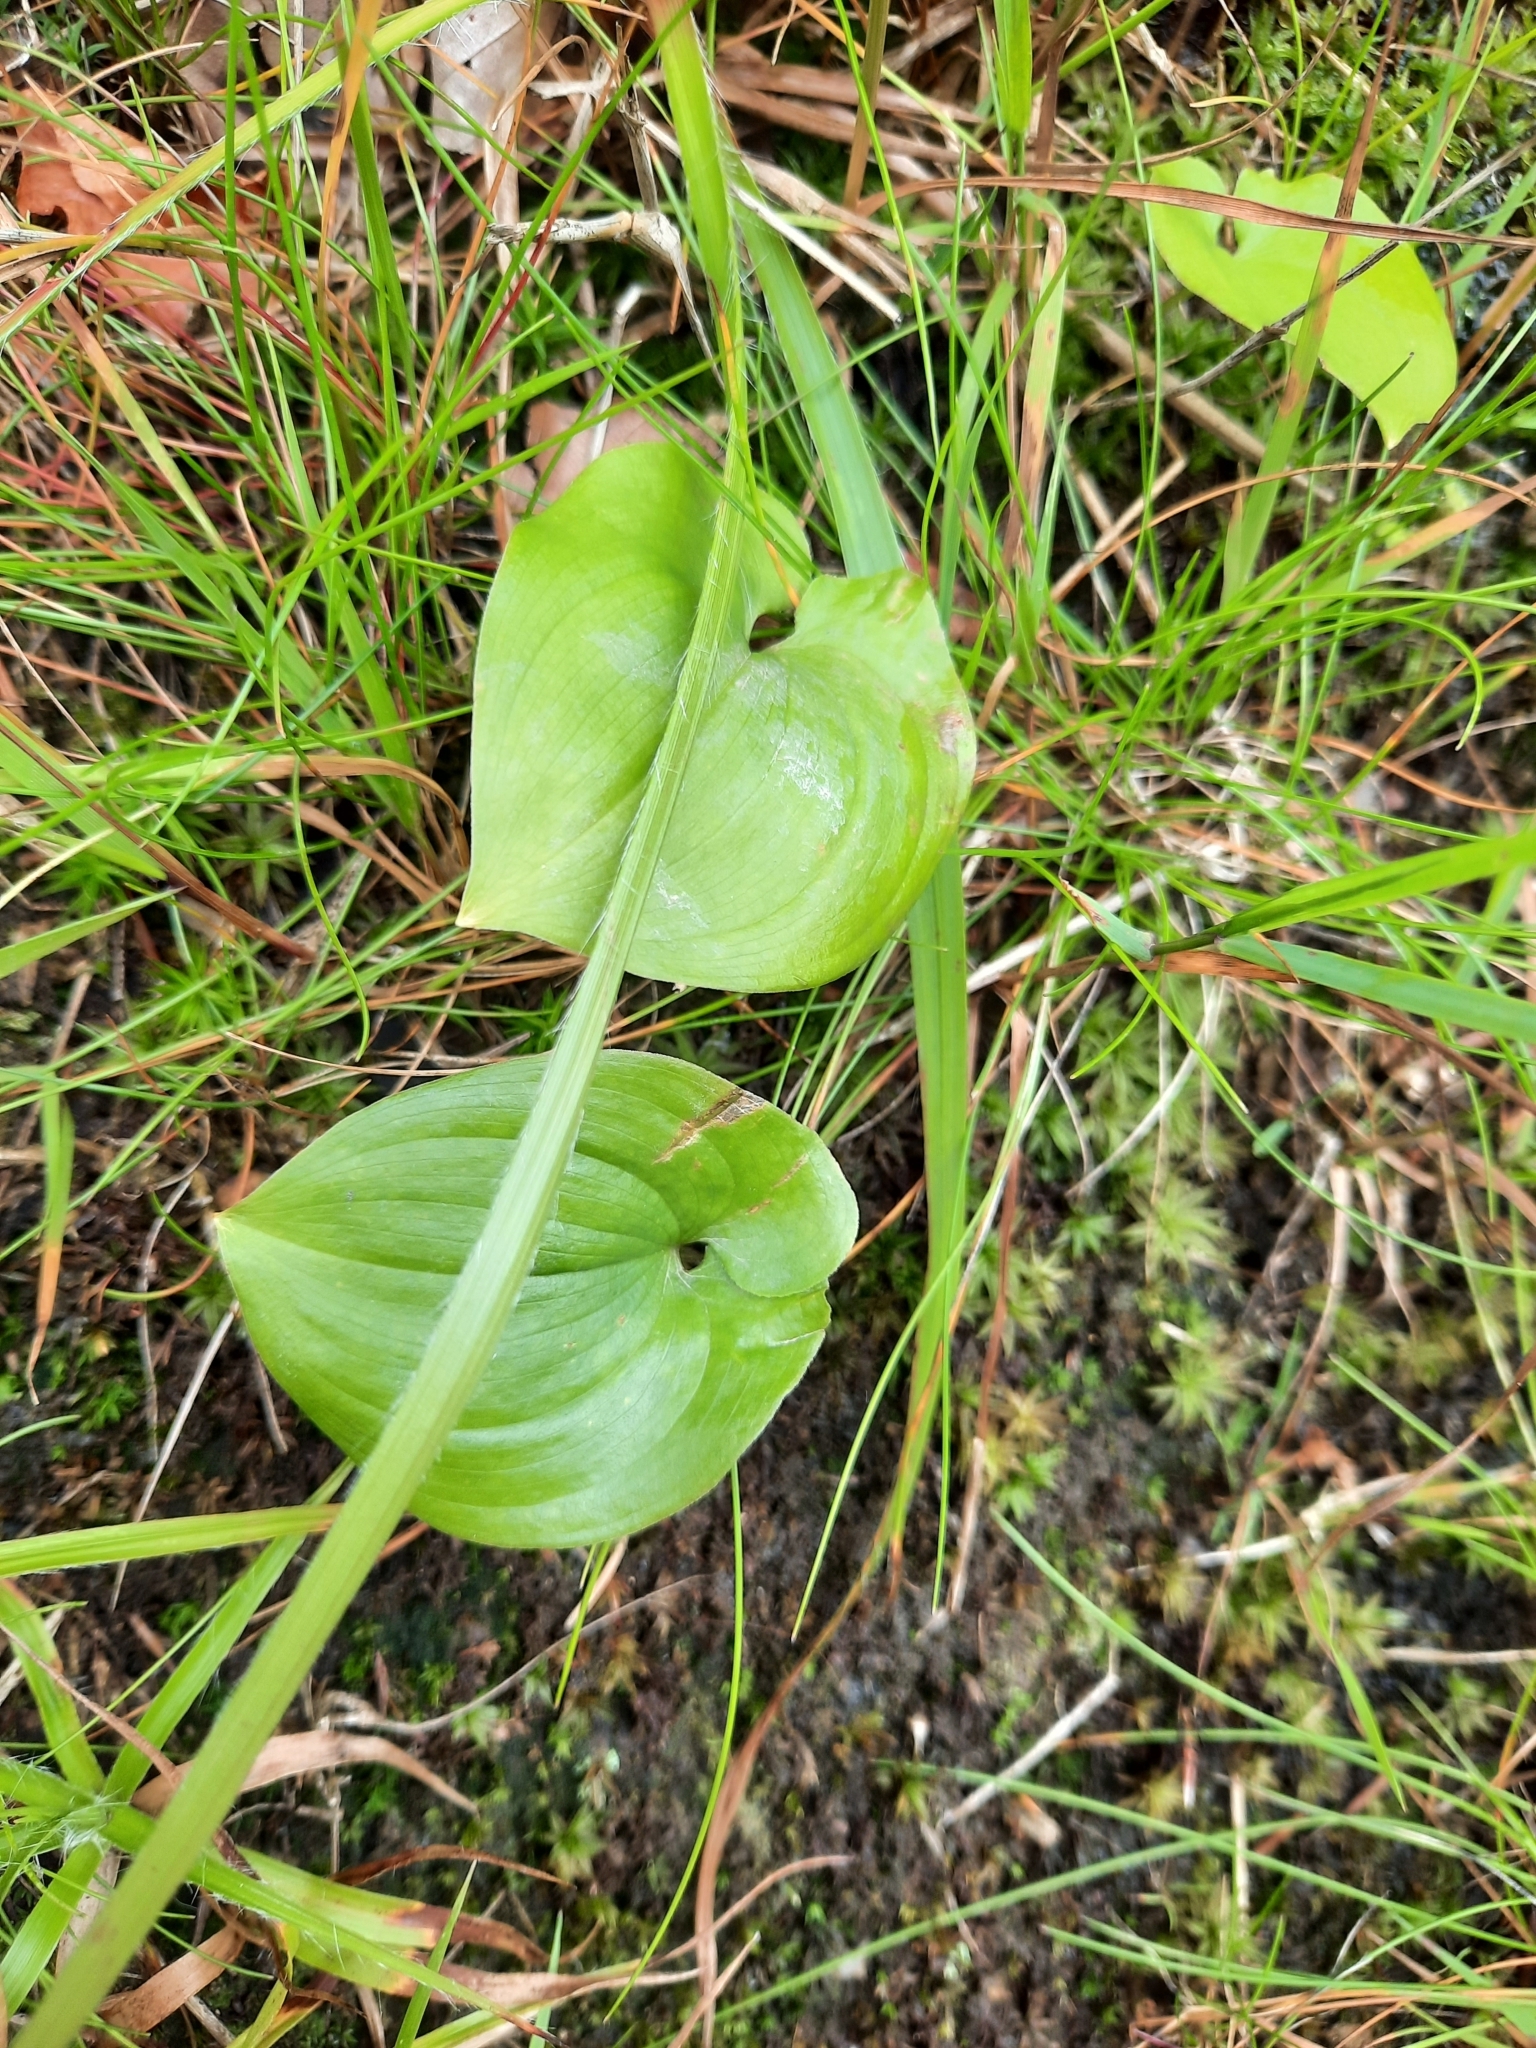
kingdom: Plantae
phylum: Tracheophyta
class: Liliopsida
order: Asparagales
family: Asparagaceae
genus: Maianthemum
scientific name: Maianthemum bifolium
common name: May lily
